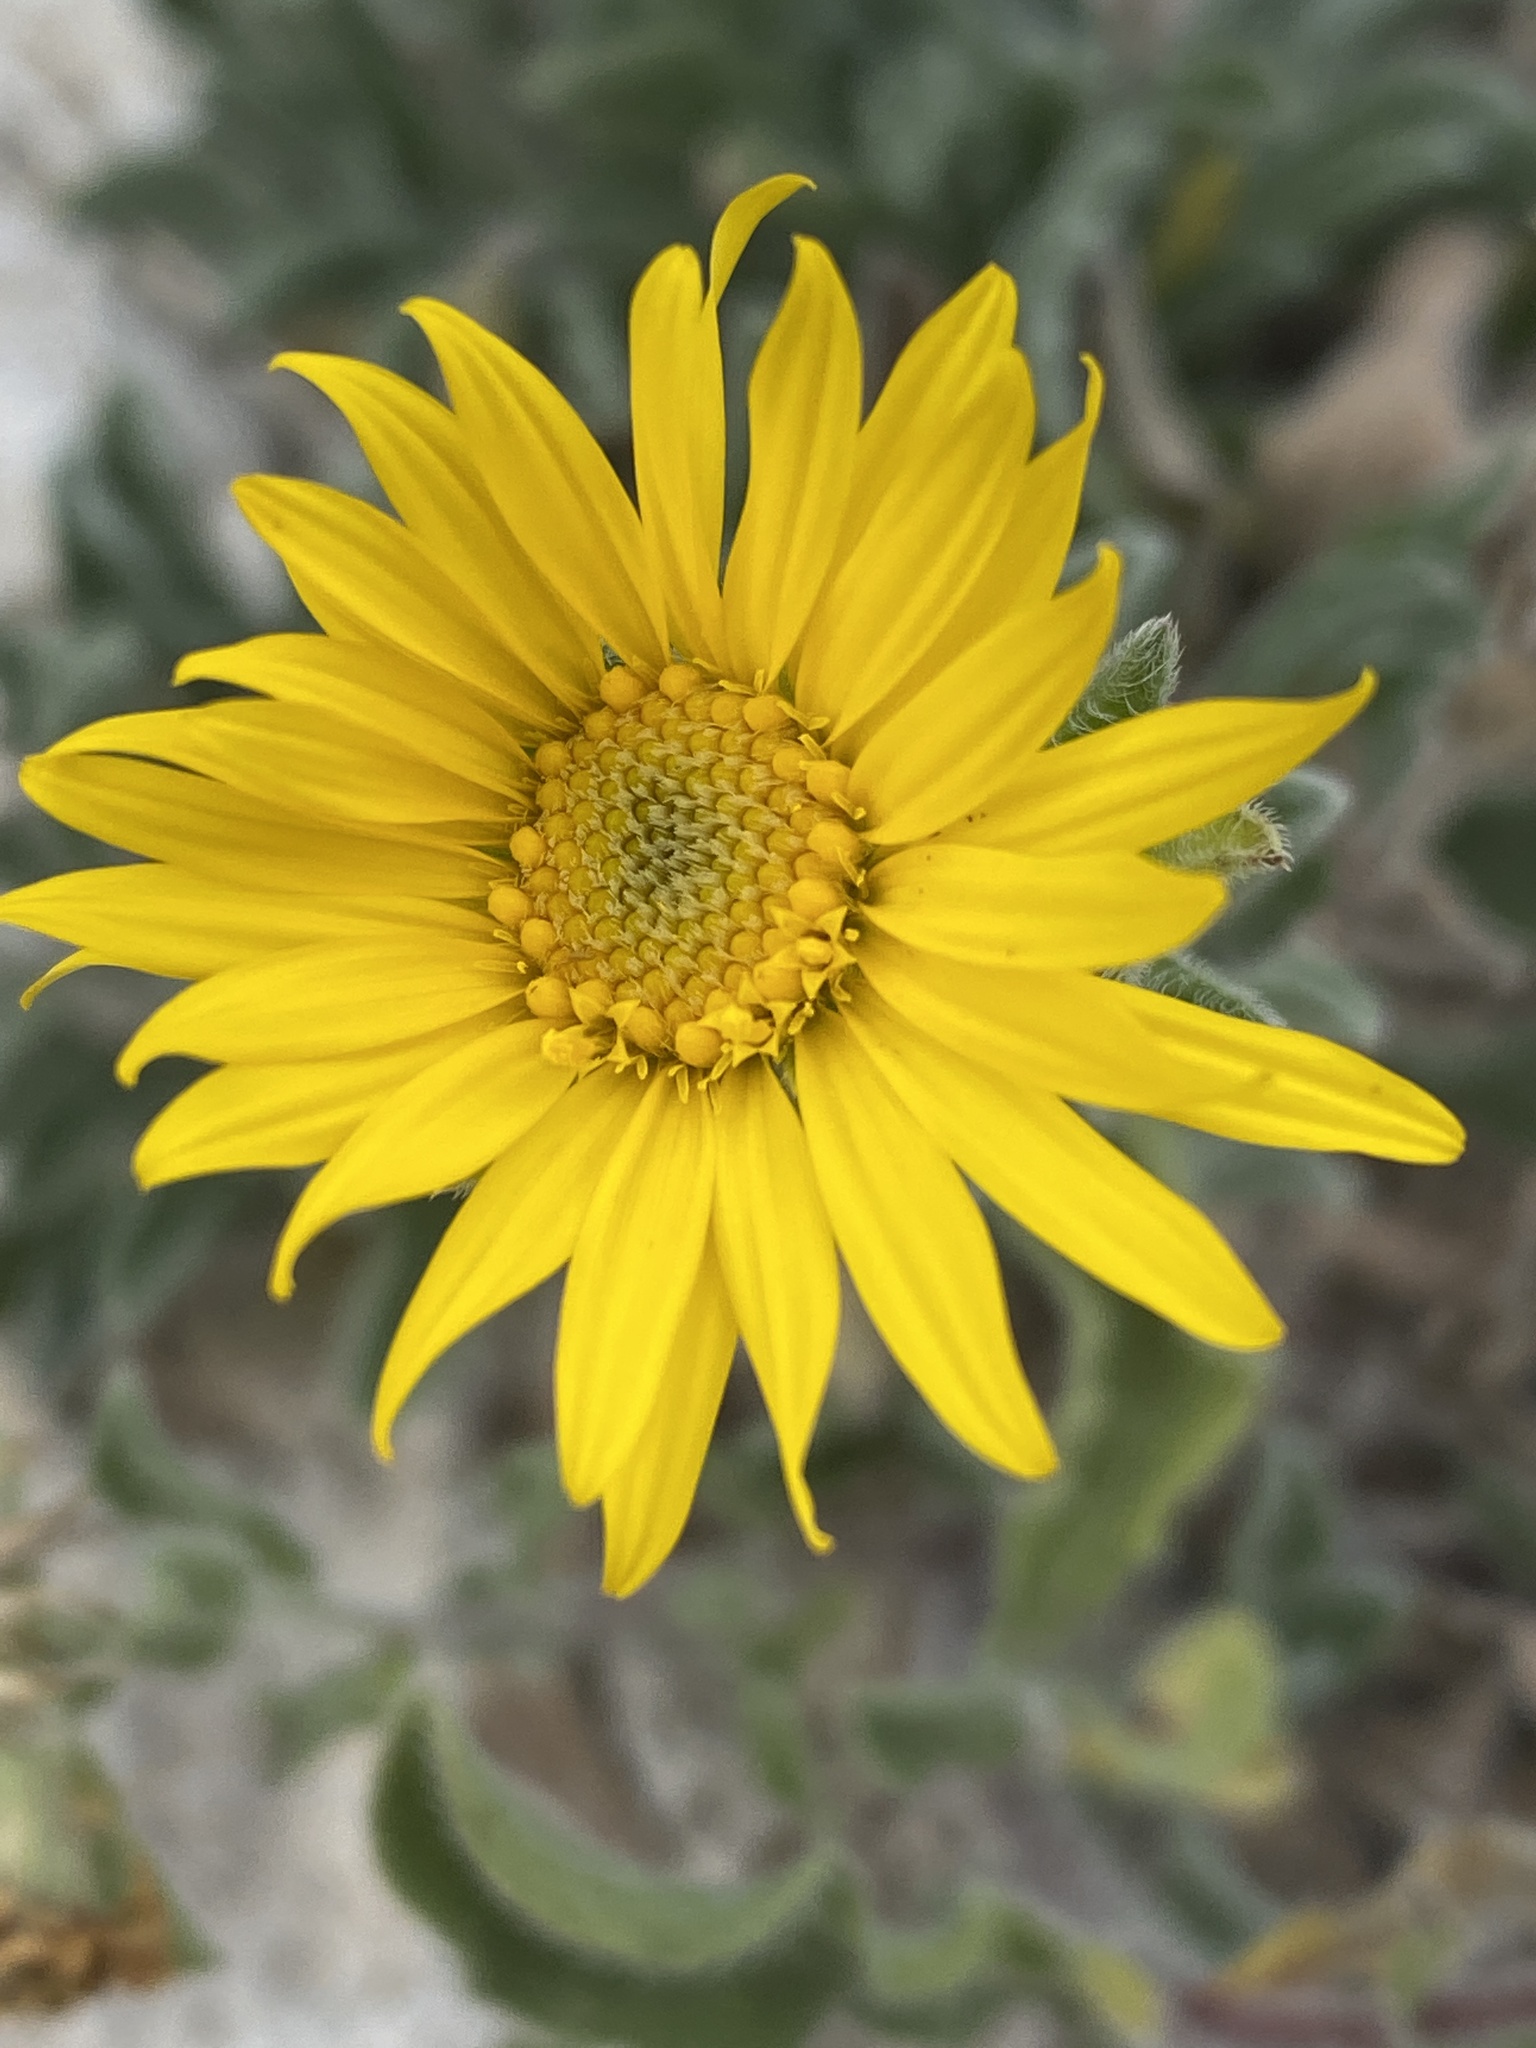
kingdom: Plantae
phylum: Tracheophyta
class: Magnoliopsida
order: Asterales
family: Asteraceae
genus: Heterotheca
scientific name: Heterotheca fulcrata
